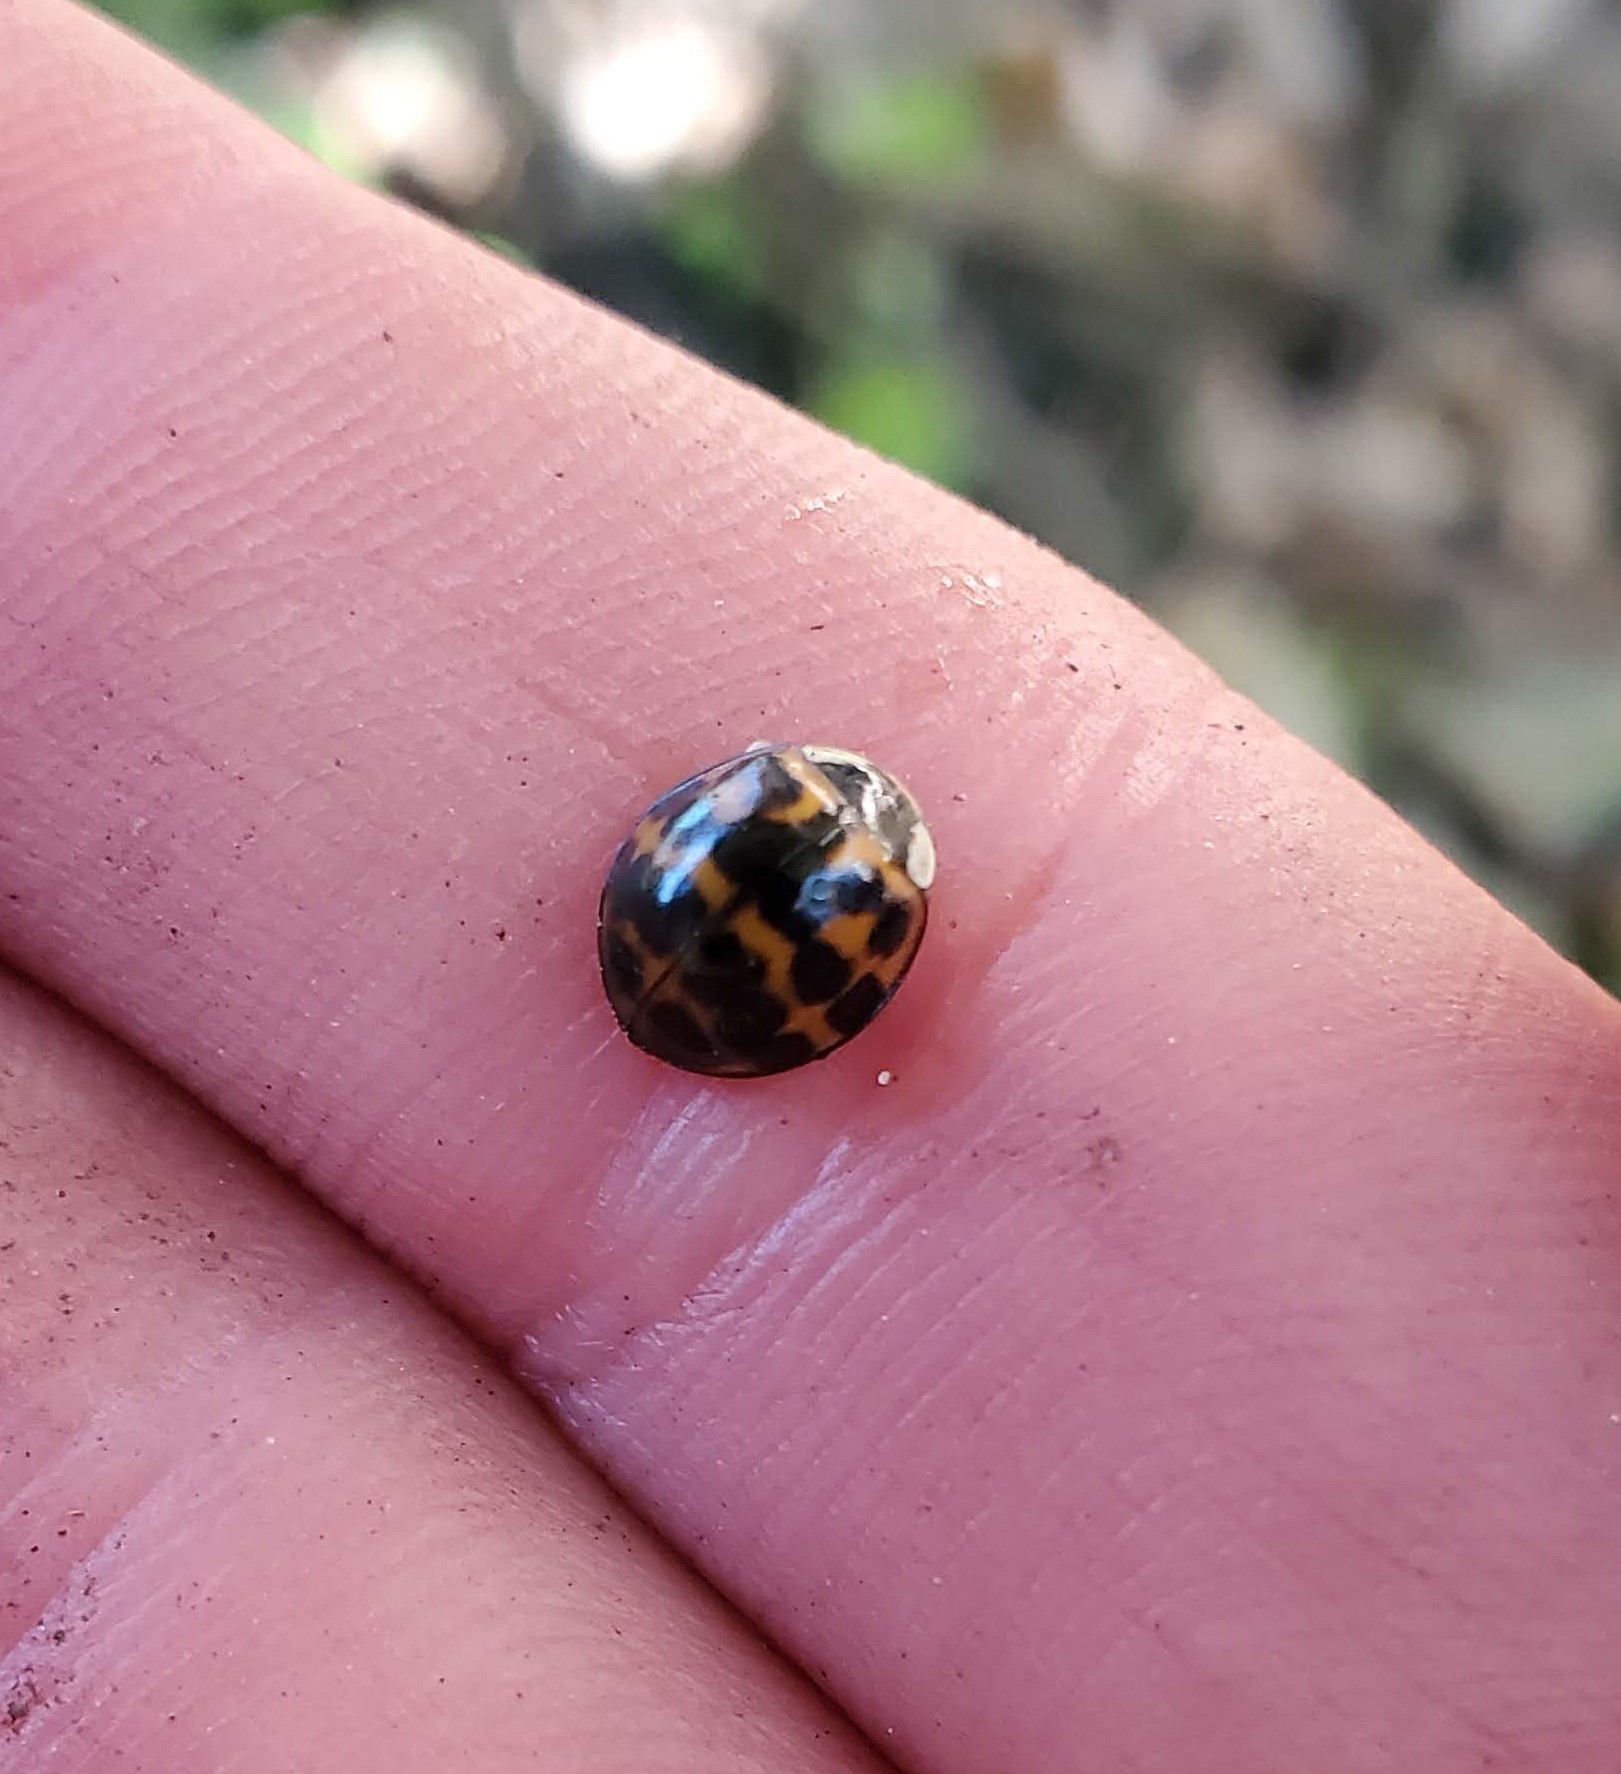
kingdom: Animalia
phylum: Arthropoda
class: Insecta
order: Coleoptera
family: Coccinellidae
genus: Harmonia
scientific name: Harmonia axyridis
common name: Harlequin ladybird
